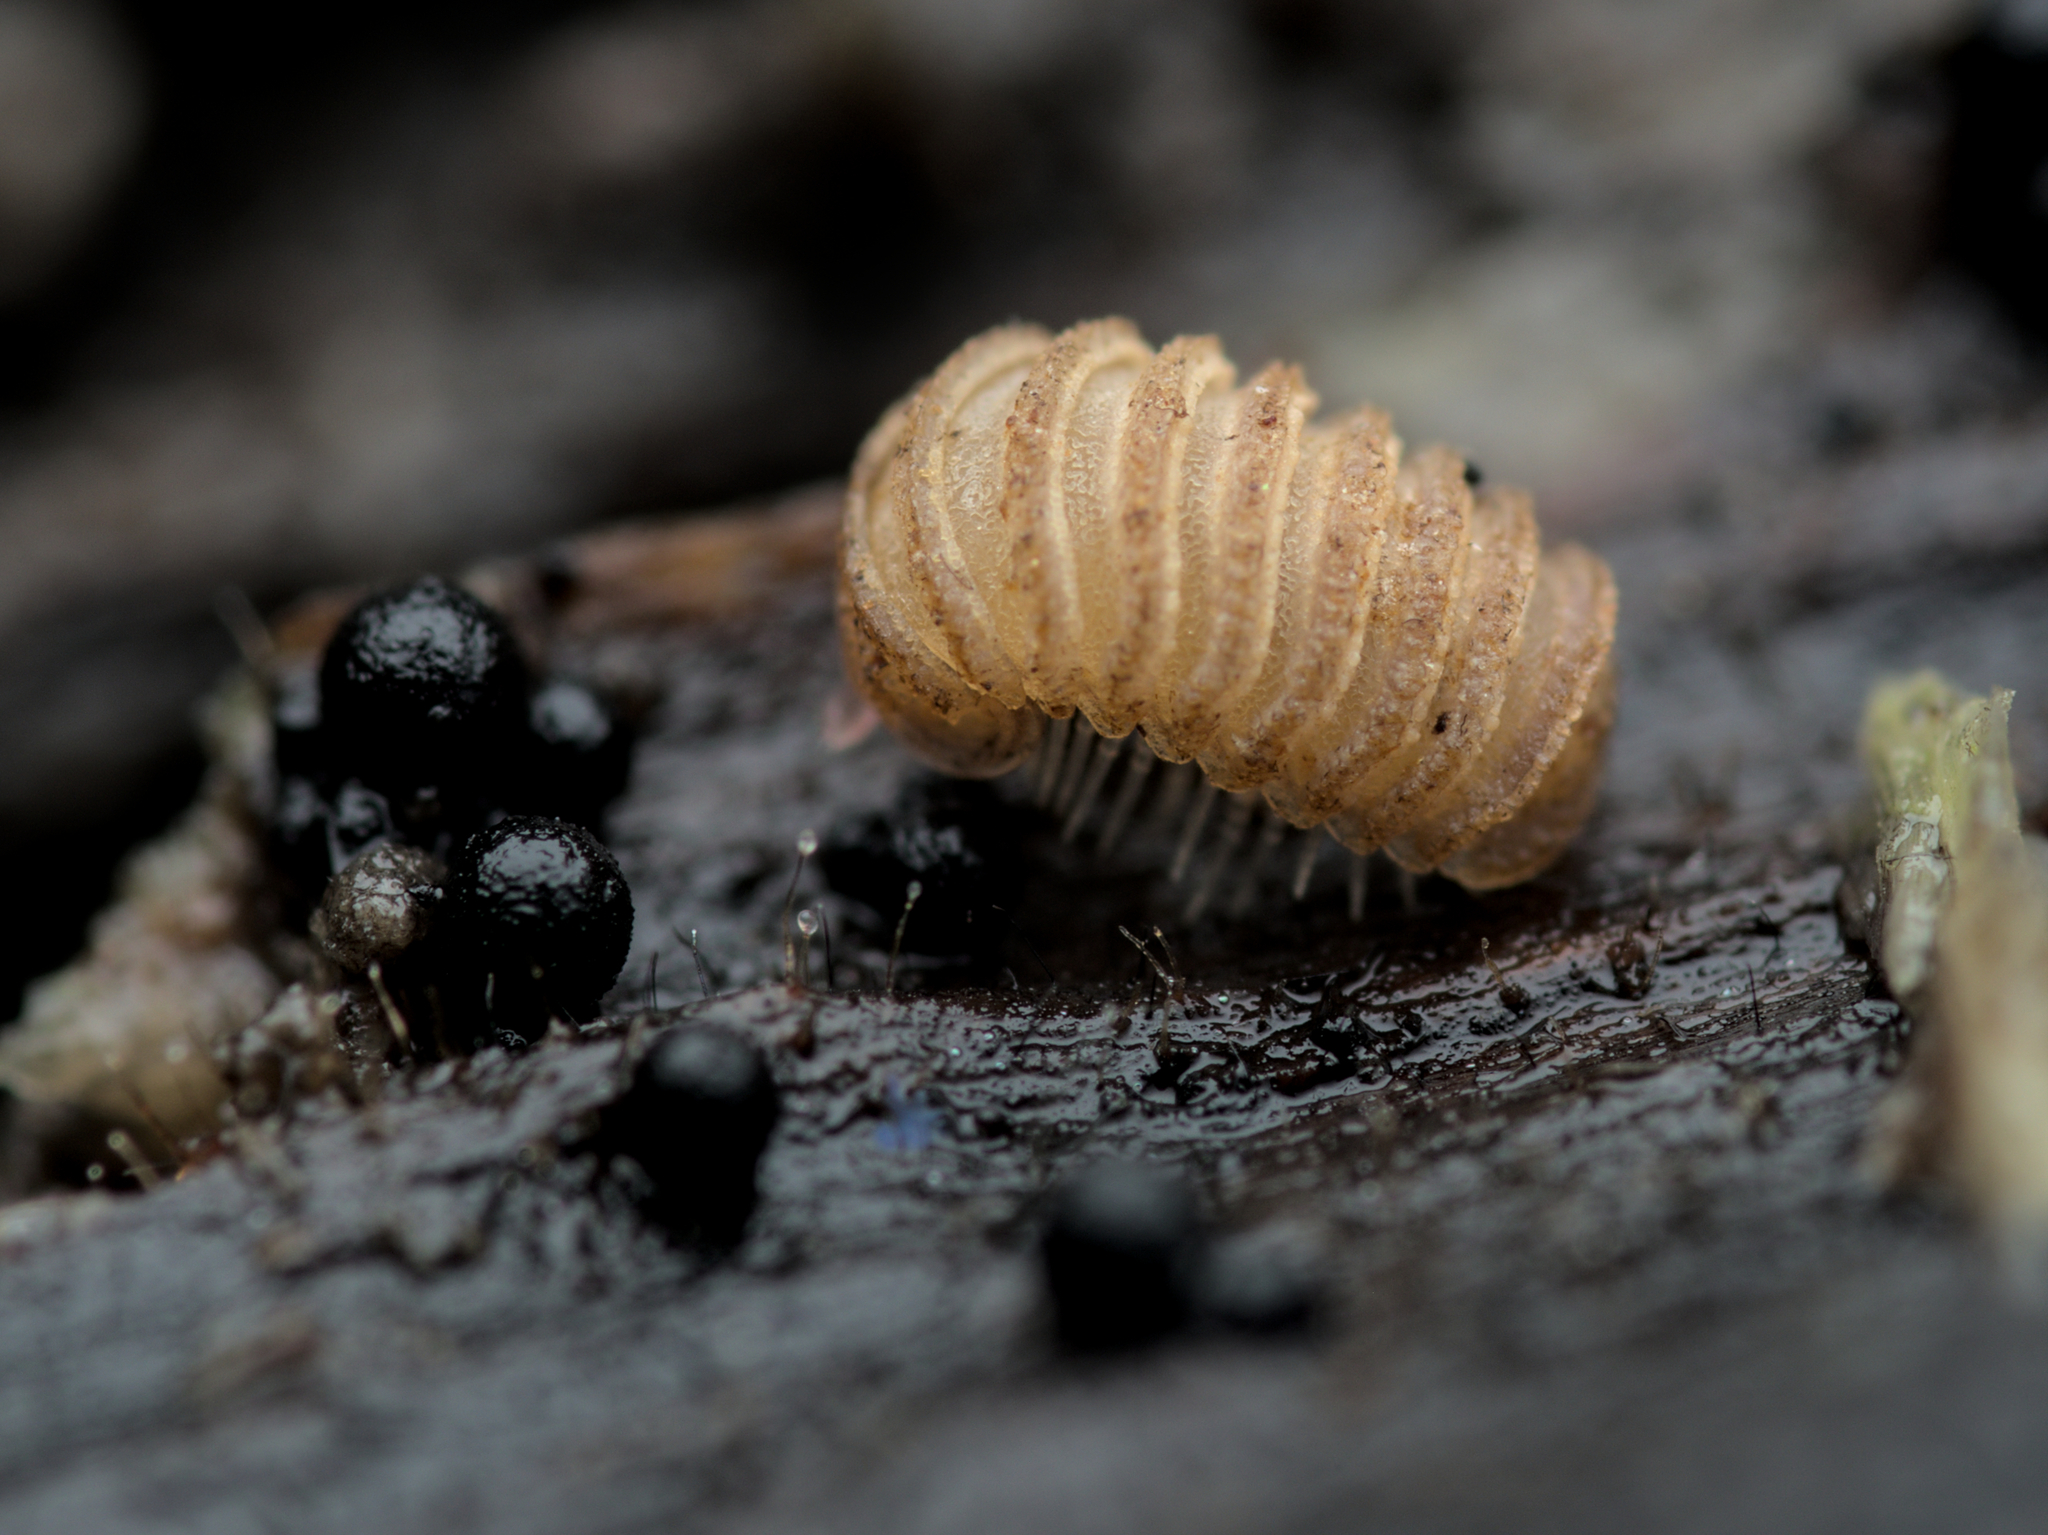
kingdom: Animalia
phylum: Arthropoda
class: Diplopoda
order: Glomerida
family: Glomeridae
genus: Trachysphaera
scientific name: Trachysphaera lobata
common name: Sand pill-millipede
